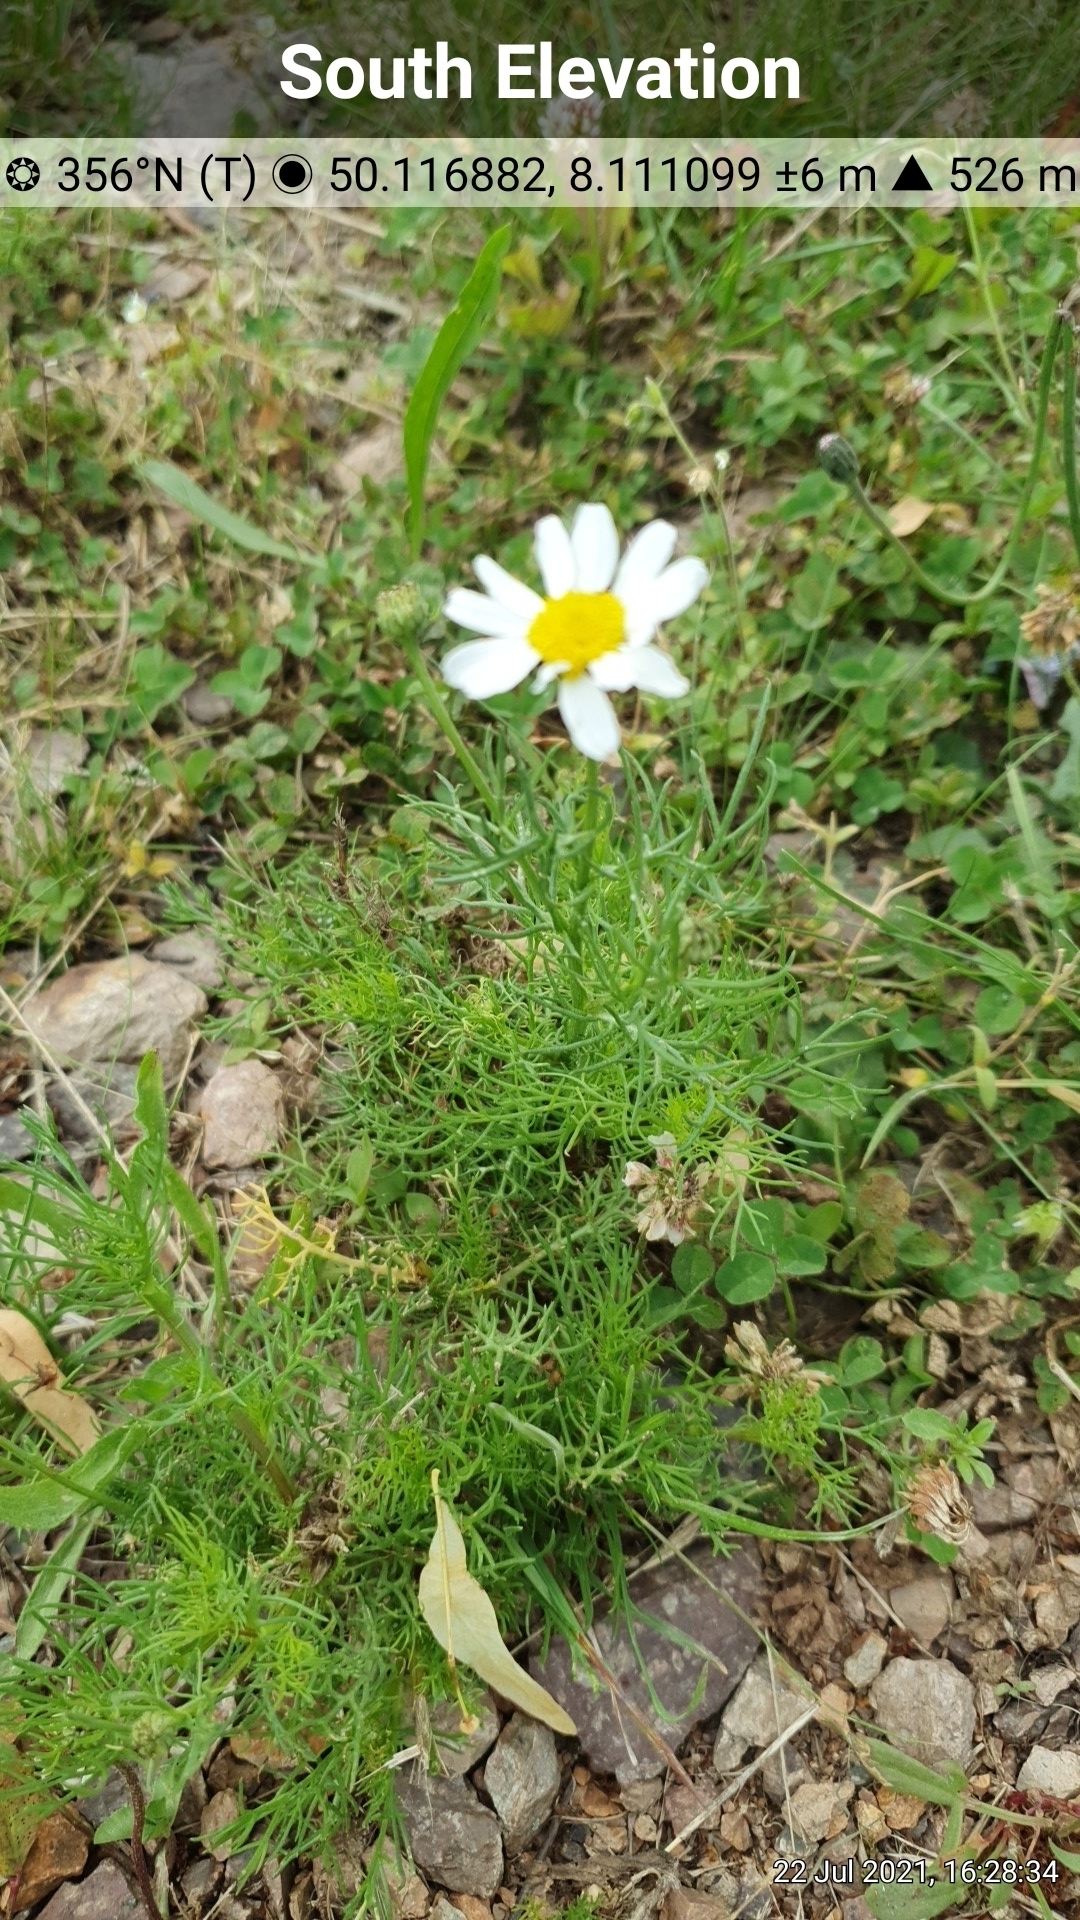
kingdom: Plantae
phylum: Tracheophyta
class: Magnoliopsida
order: Asterales
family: Asteraceae
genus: Tripleurospermum
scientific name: Tripleurospermum inodorum
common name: Scentless mayweed
